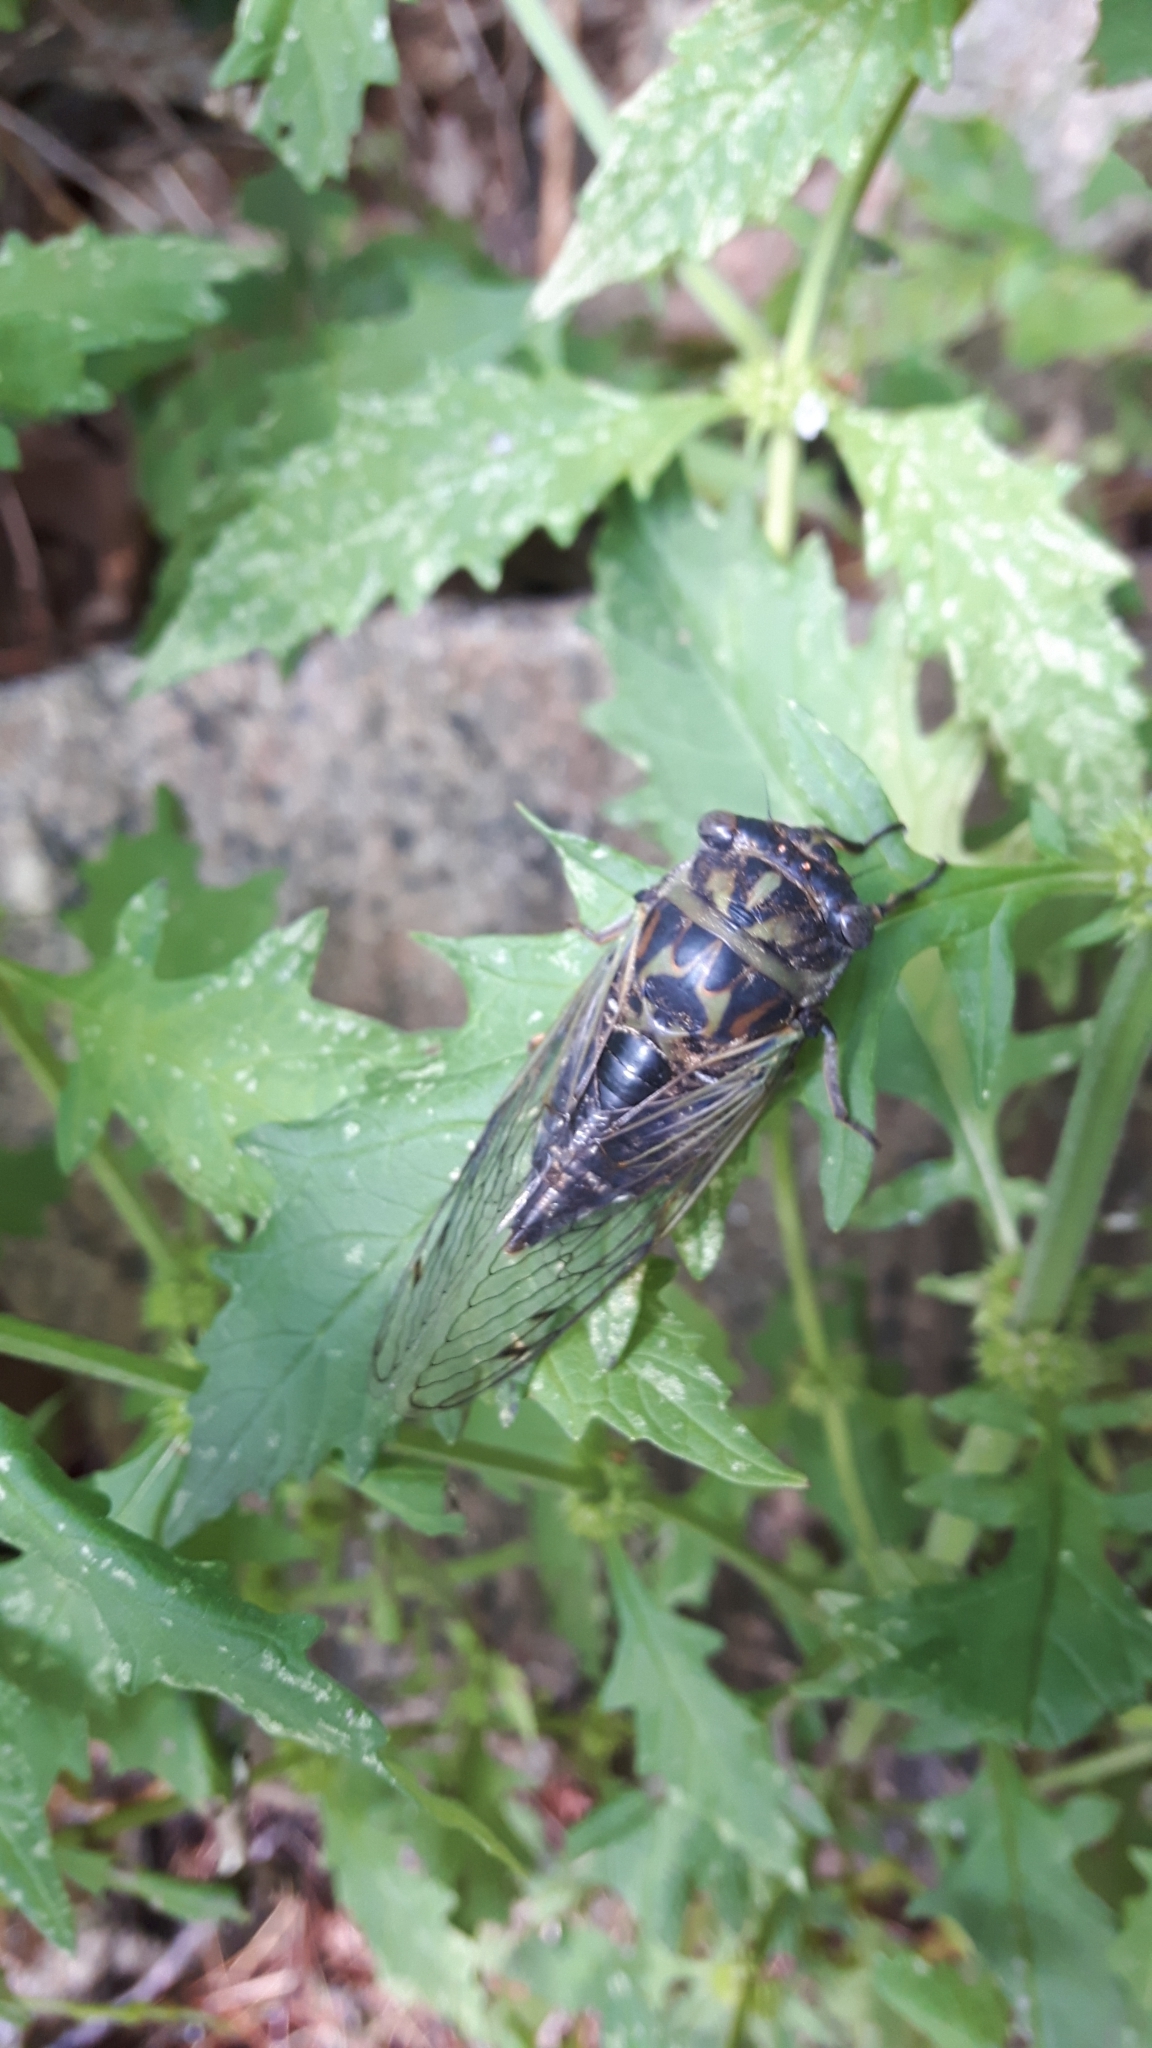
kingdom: Animalia
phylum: Arthropoda
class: Insecta
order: Hemiptera
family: Cicadidae
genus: Neotibicen
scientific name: Neotibicen canicularis
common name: God-day cicada
